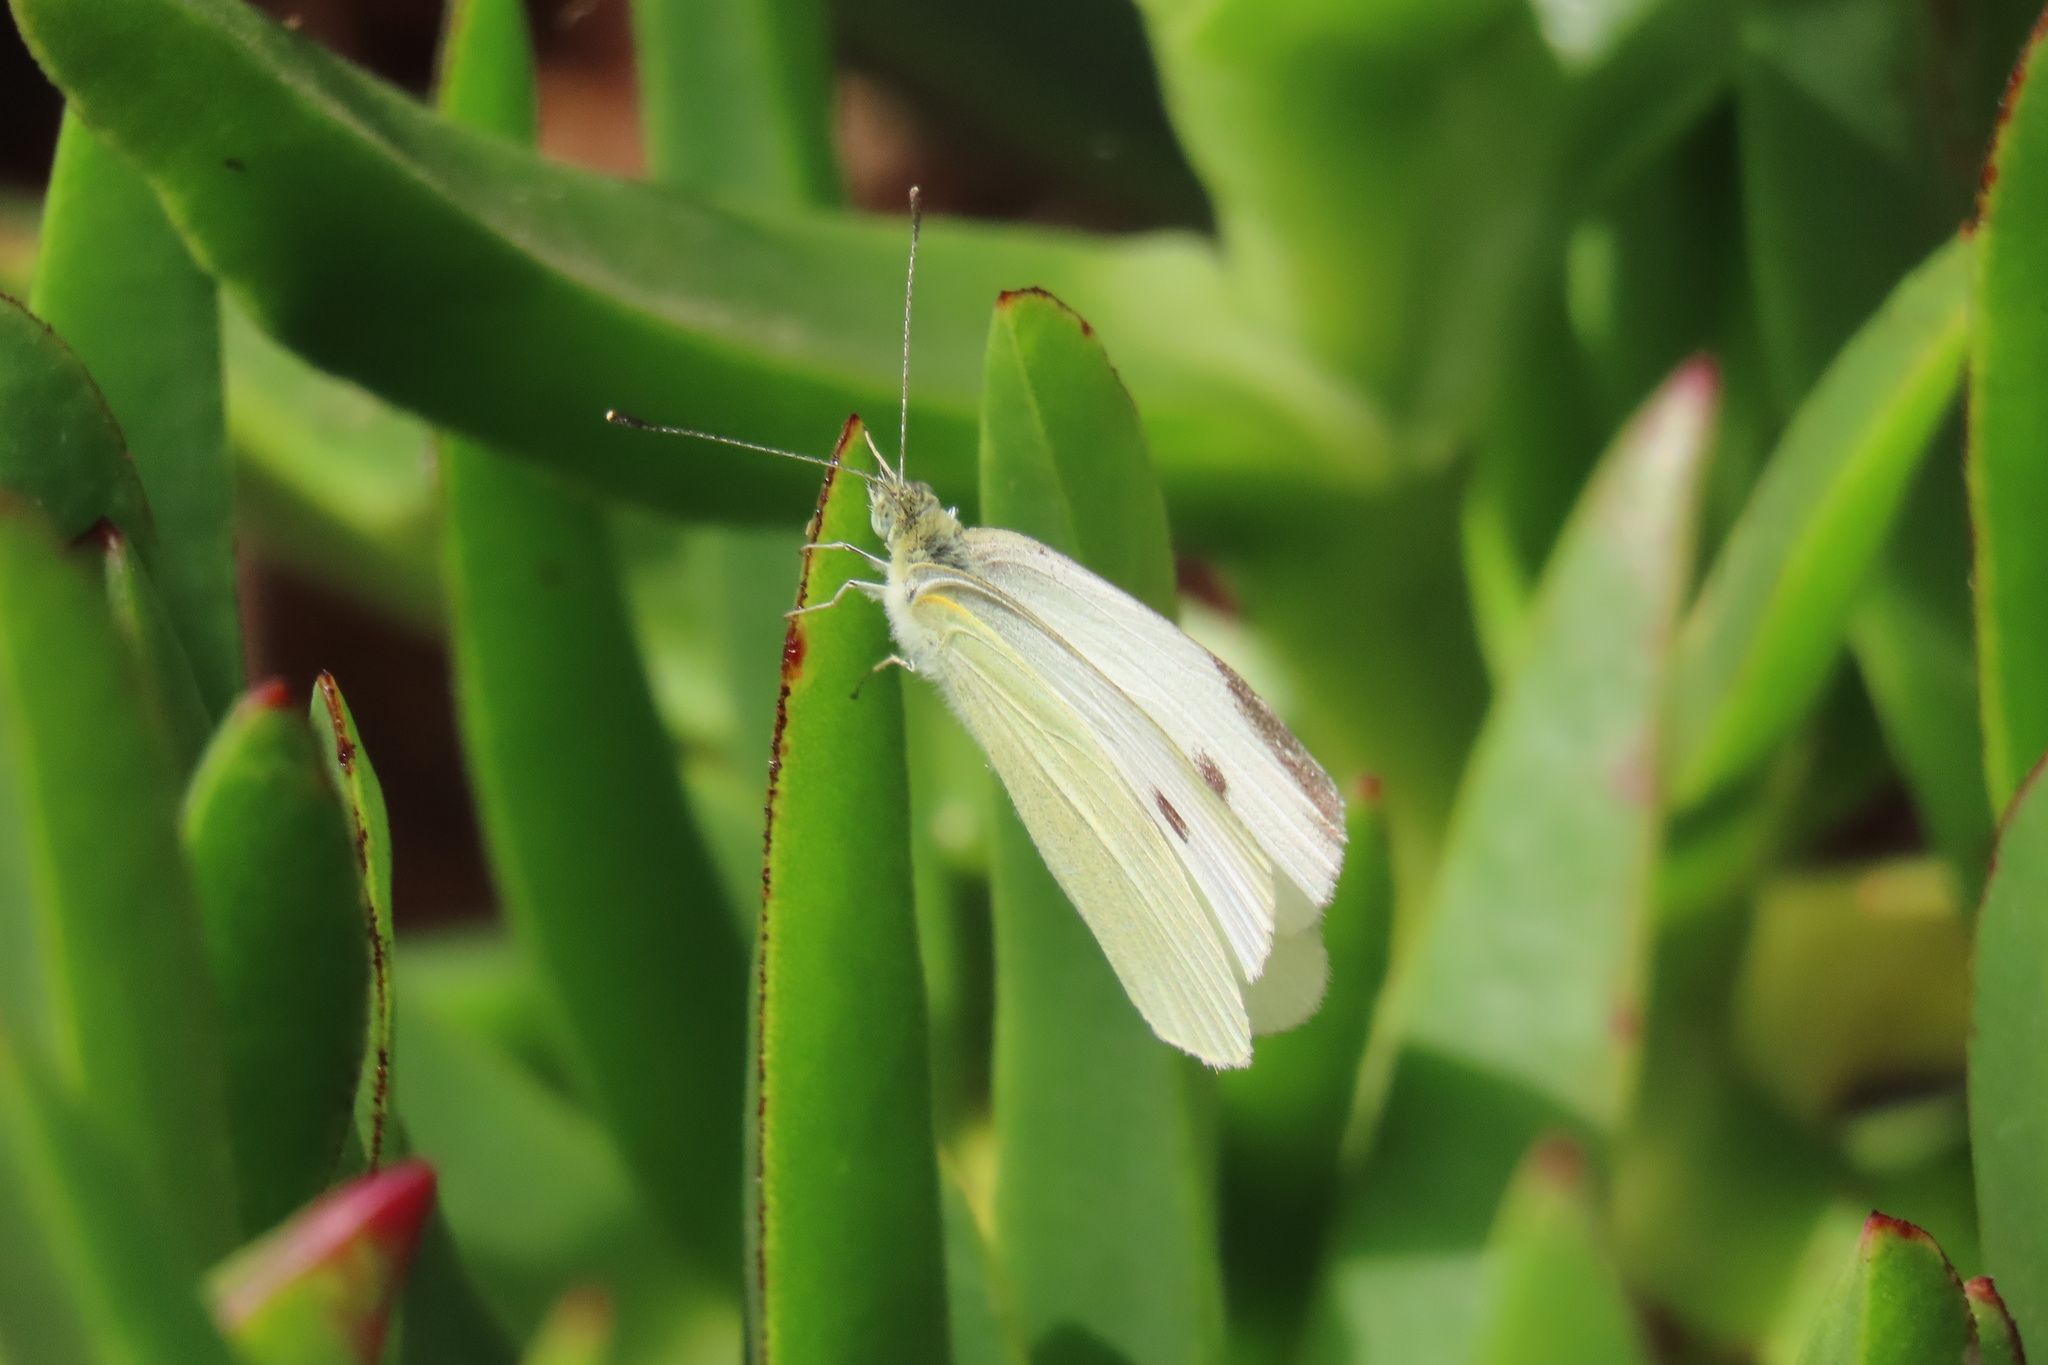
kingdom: Animalia
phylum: Arthropoda
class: Insecta
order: Lepidoptera
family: Pieridae
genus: Pieris
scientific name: Pieris rapae
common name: Small white
